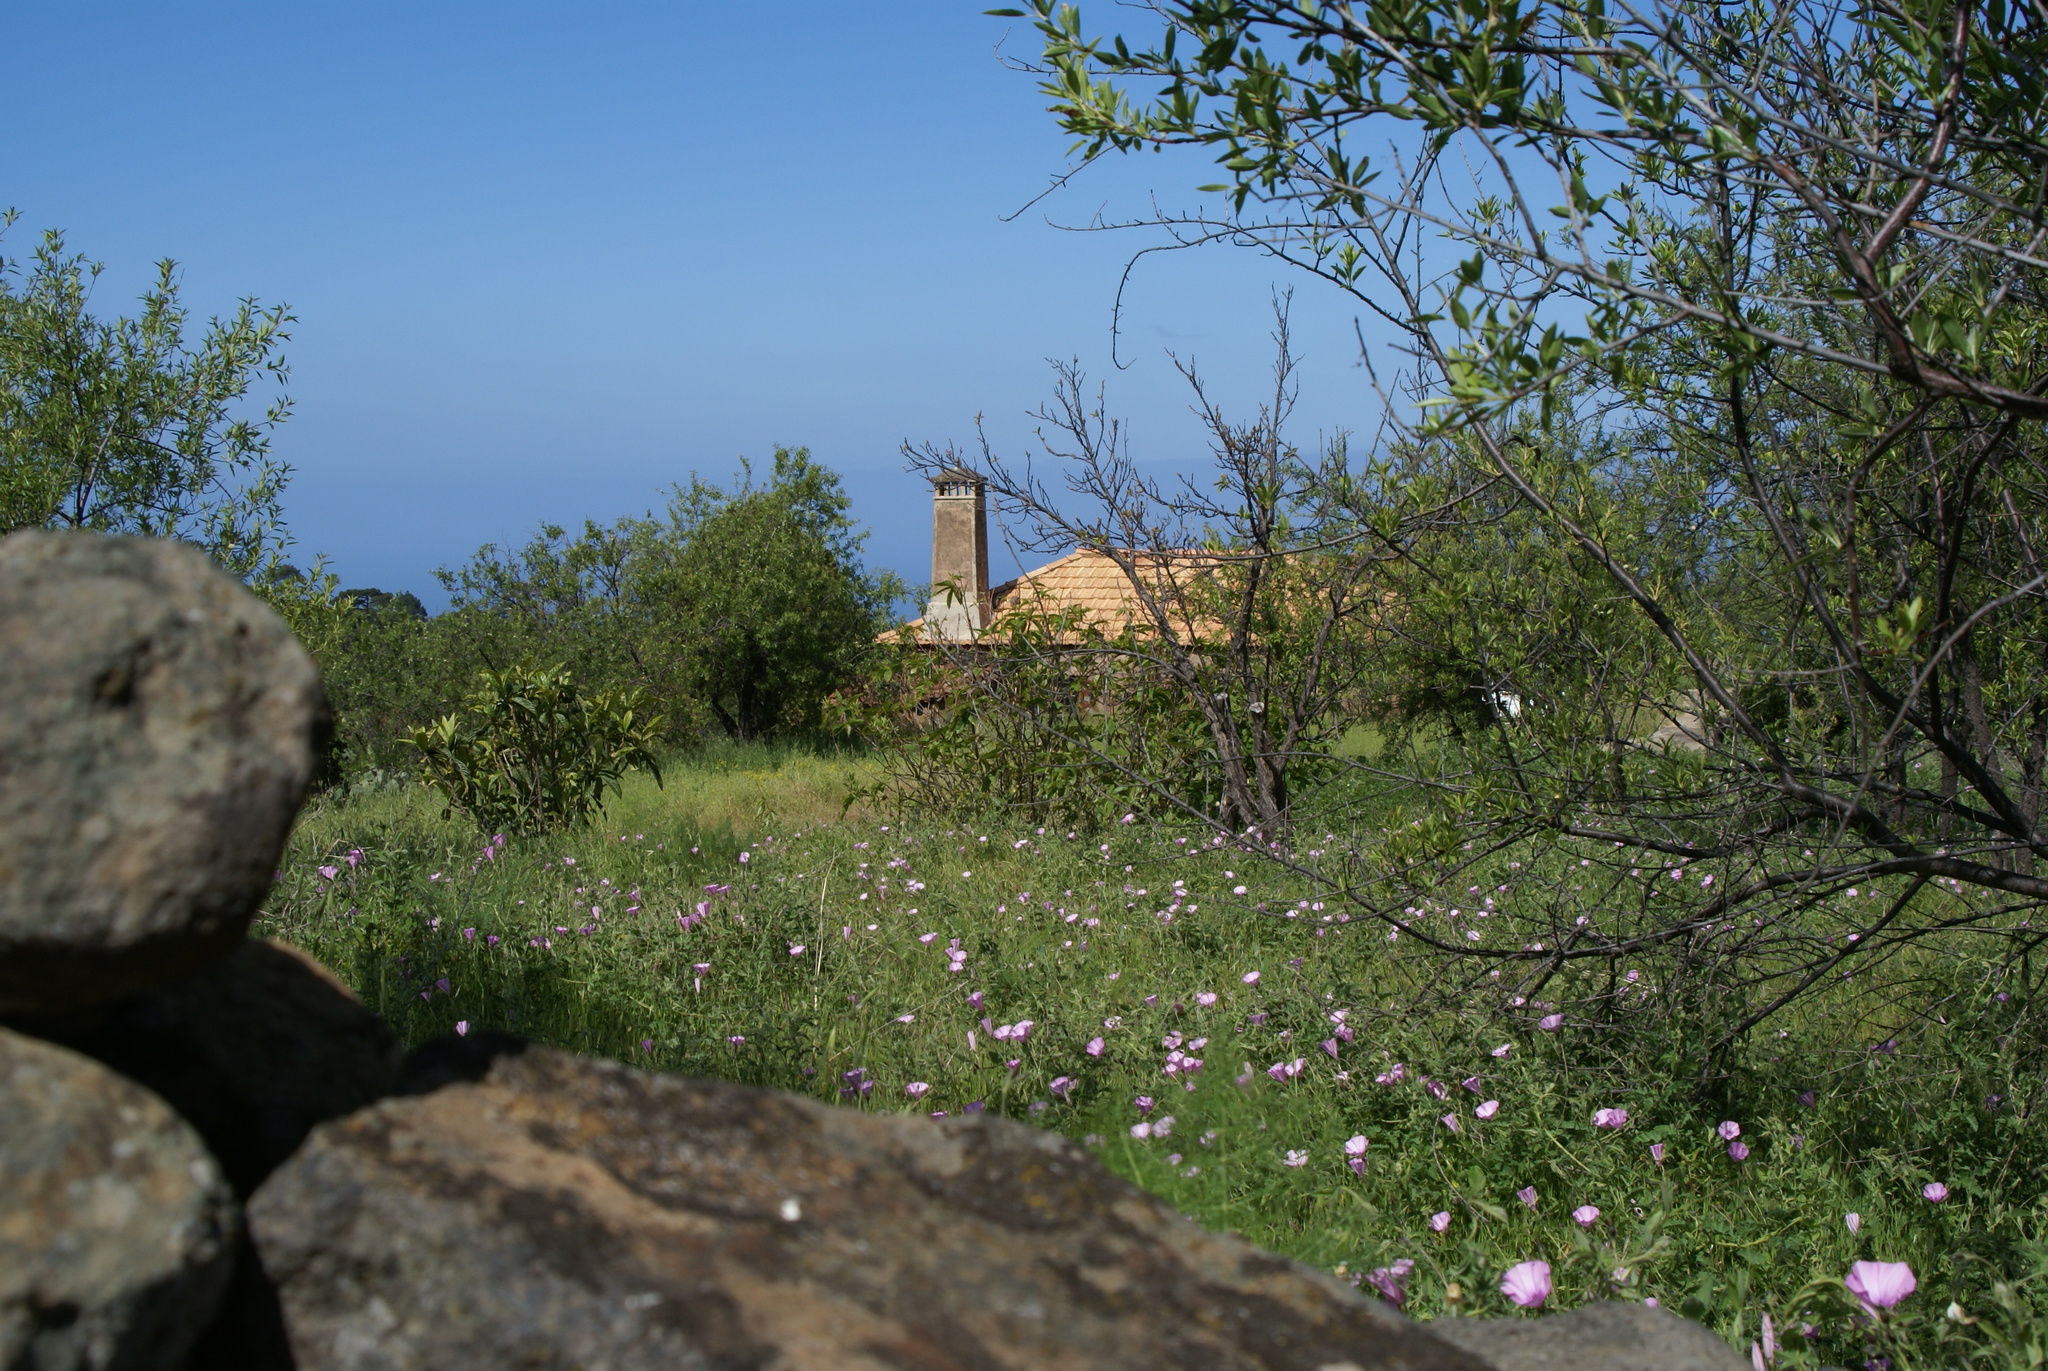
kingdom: Plantae
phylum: Tracheophyta
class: Magnoliopsida
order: Solanales
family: Convolvulaceae
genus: Convolvulus
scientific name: Convolvulus althaeoides
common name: Mallow bindweed
